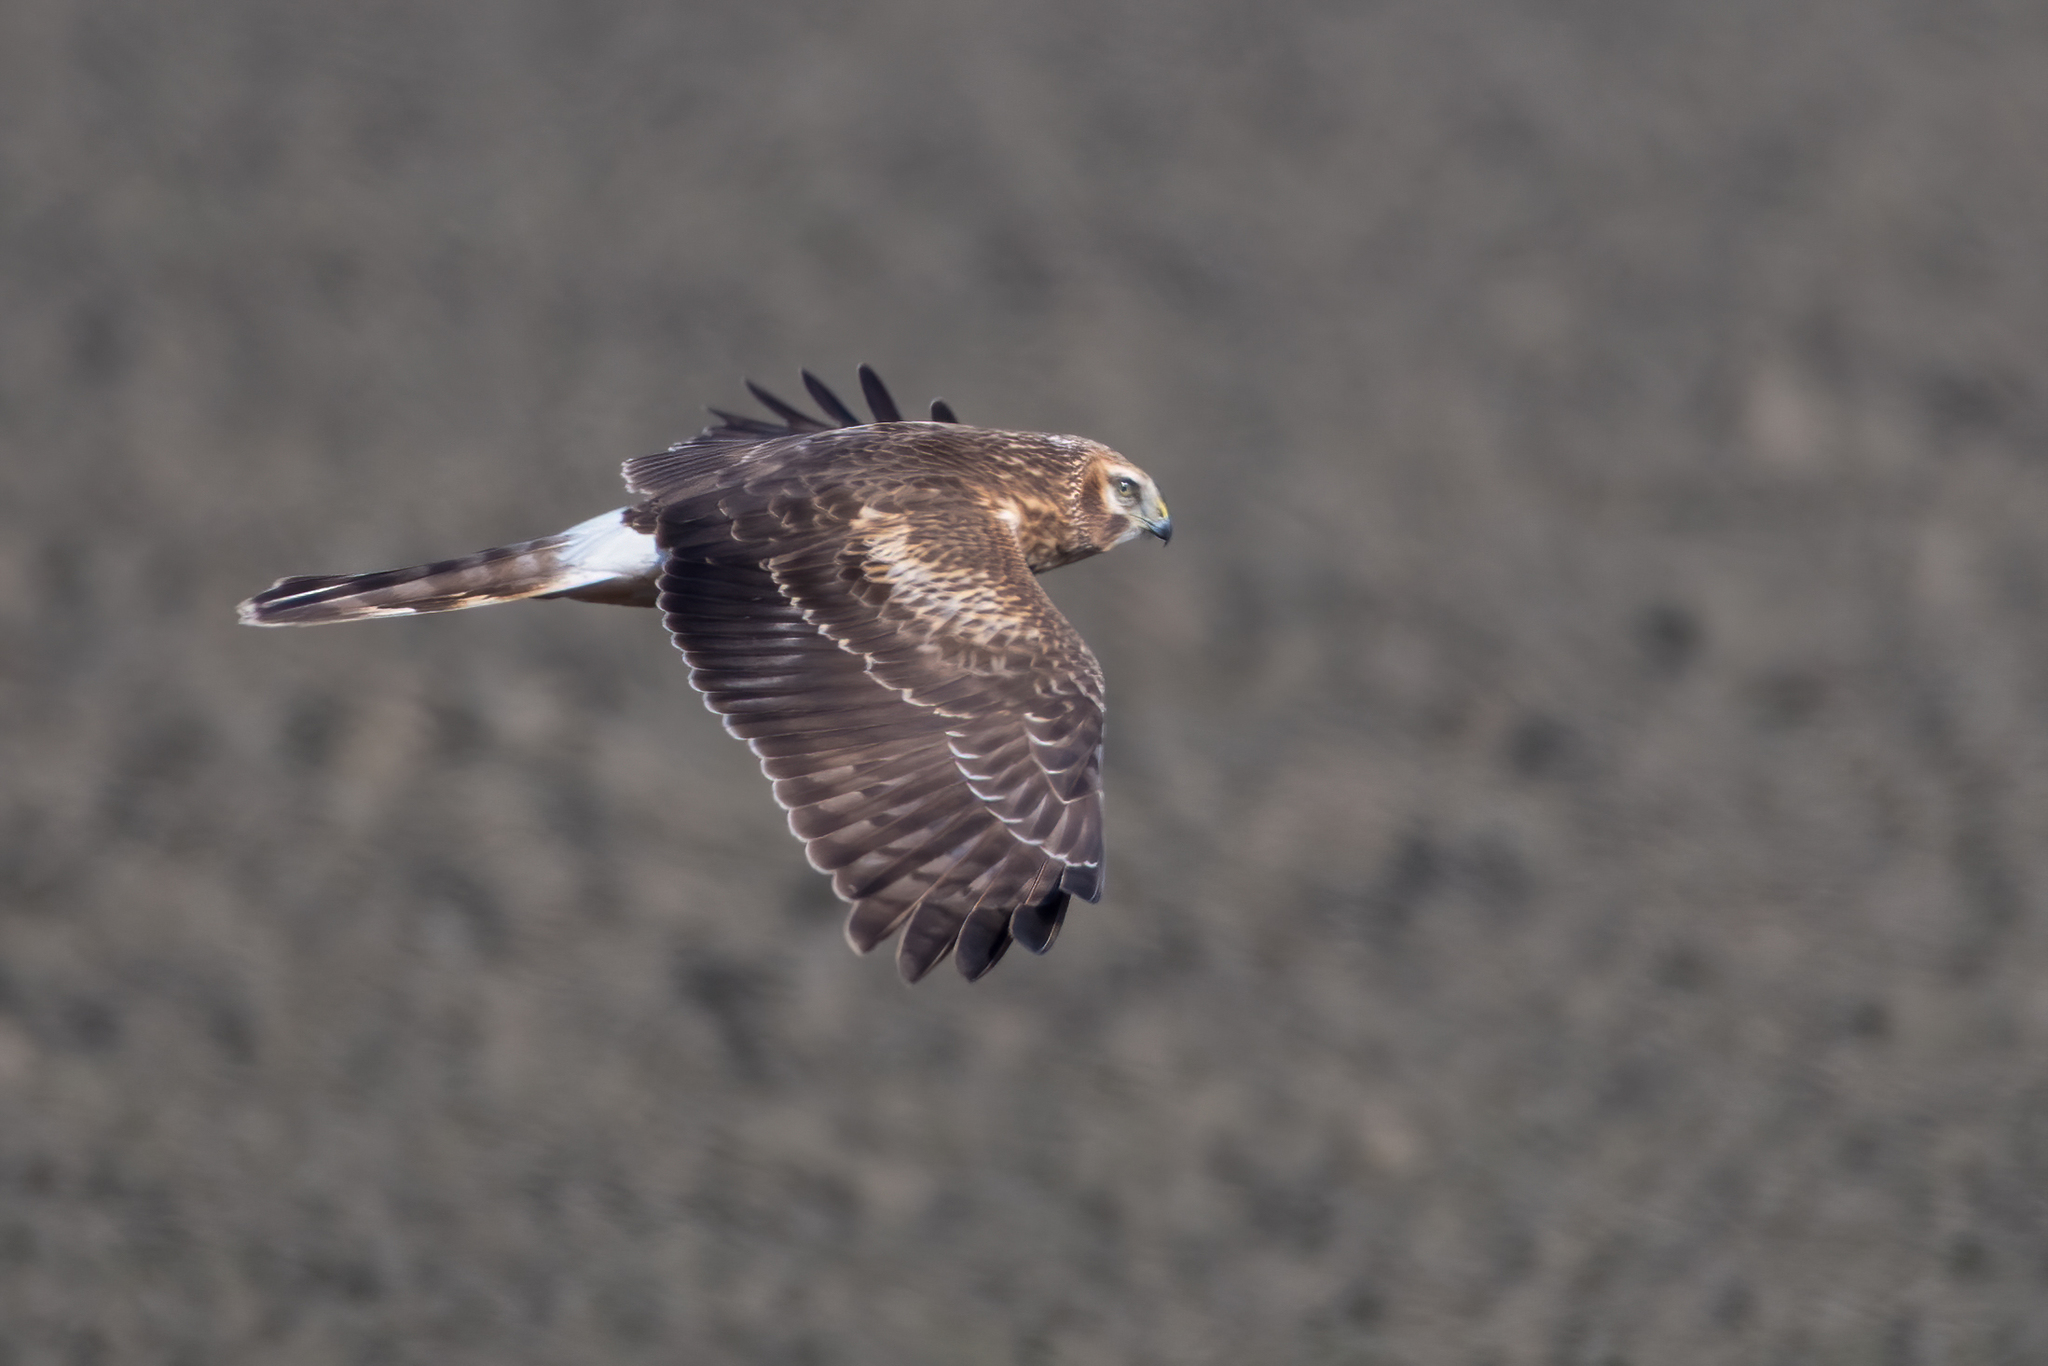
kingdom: Animalia
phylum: Chordata
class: Aves
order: Accipitriformes
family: Accipitridae
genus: Circus
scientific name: Circus cyaneus
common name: Hen harrier
